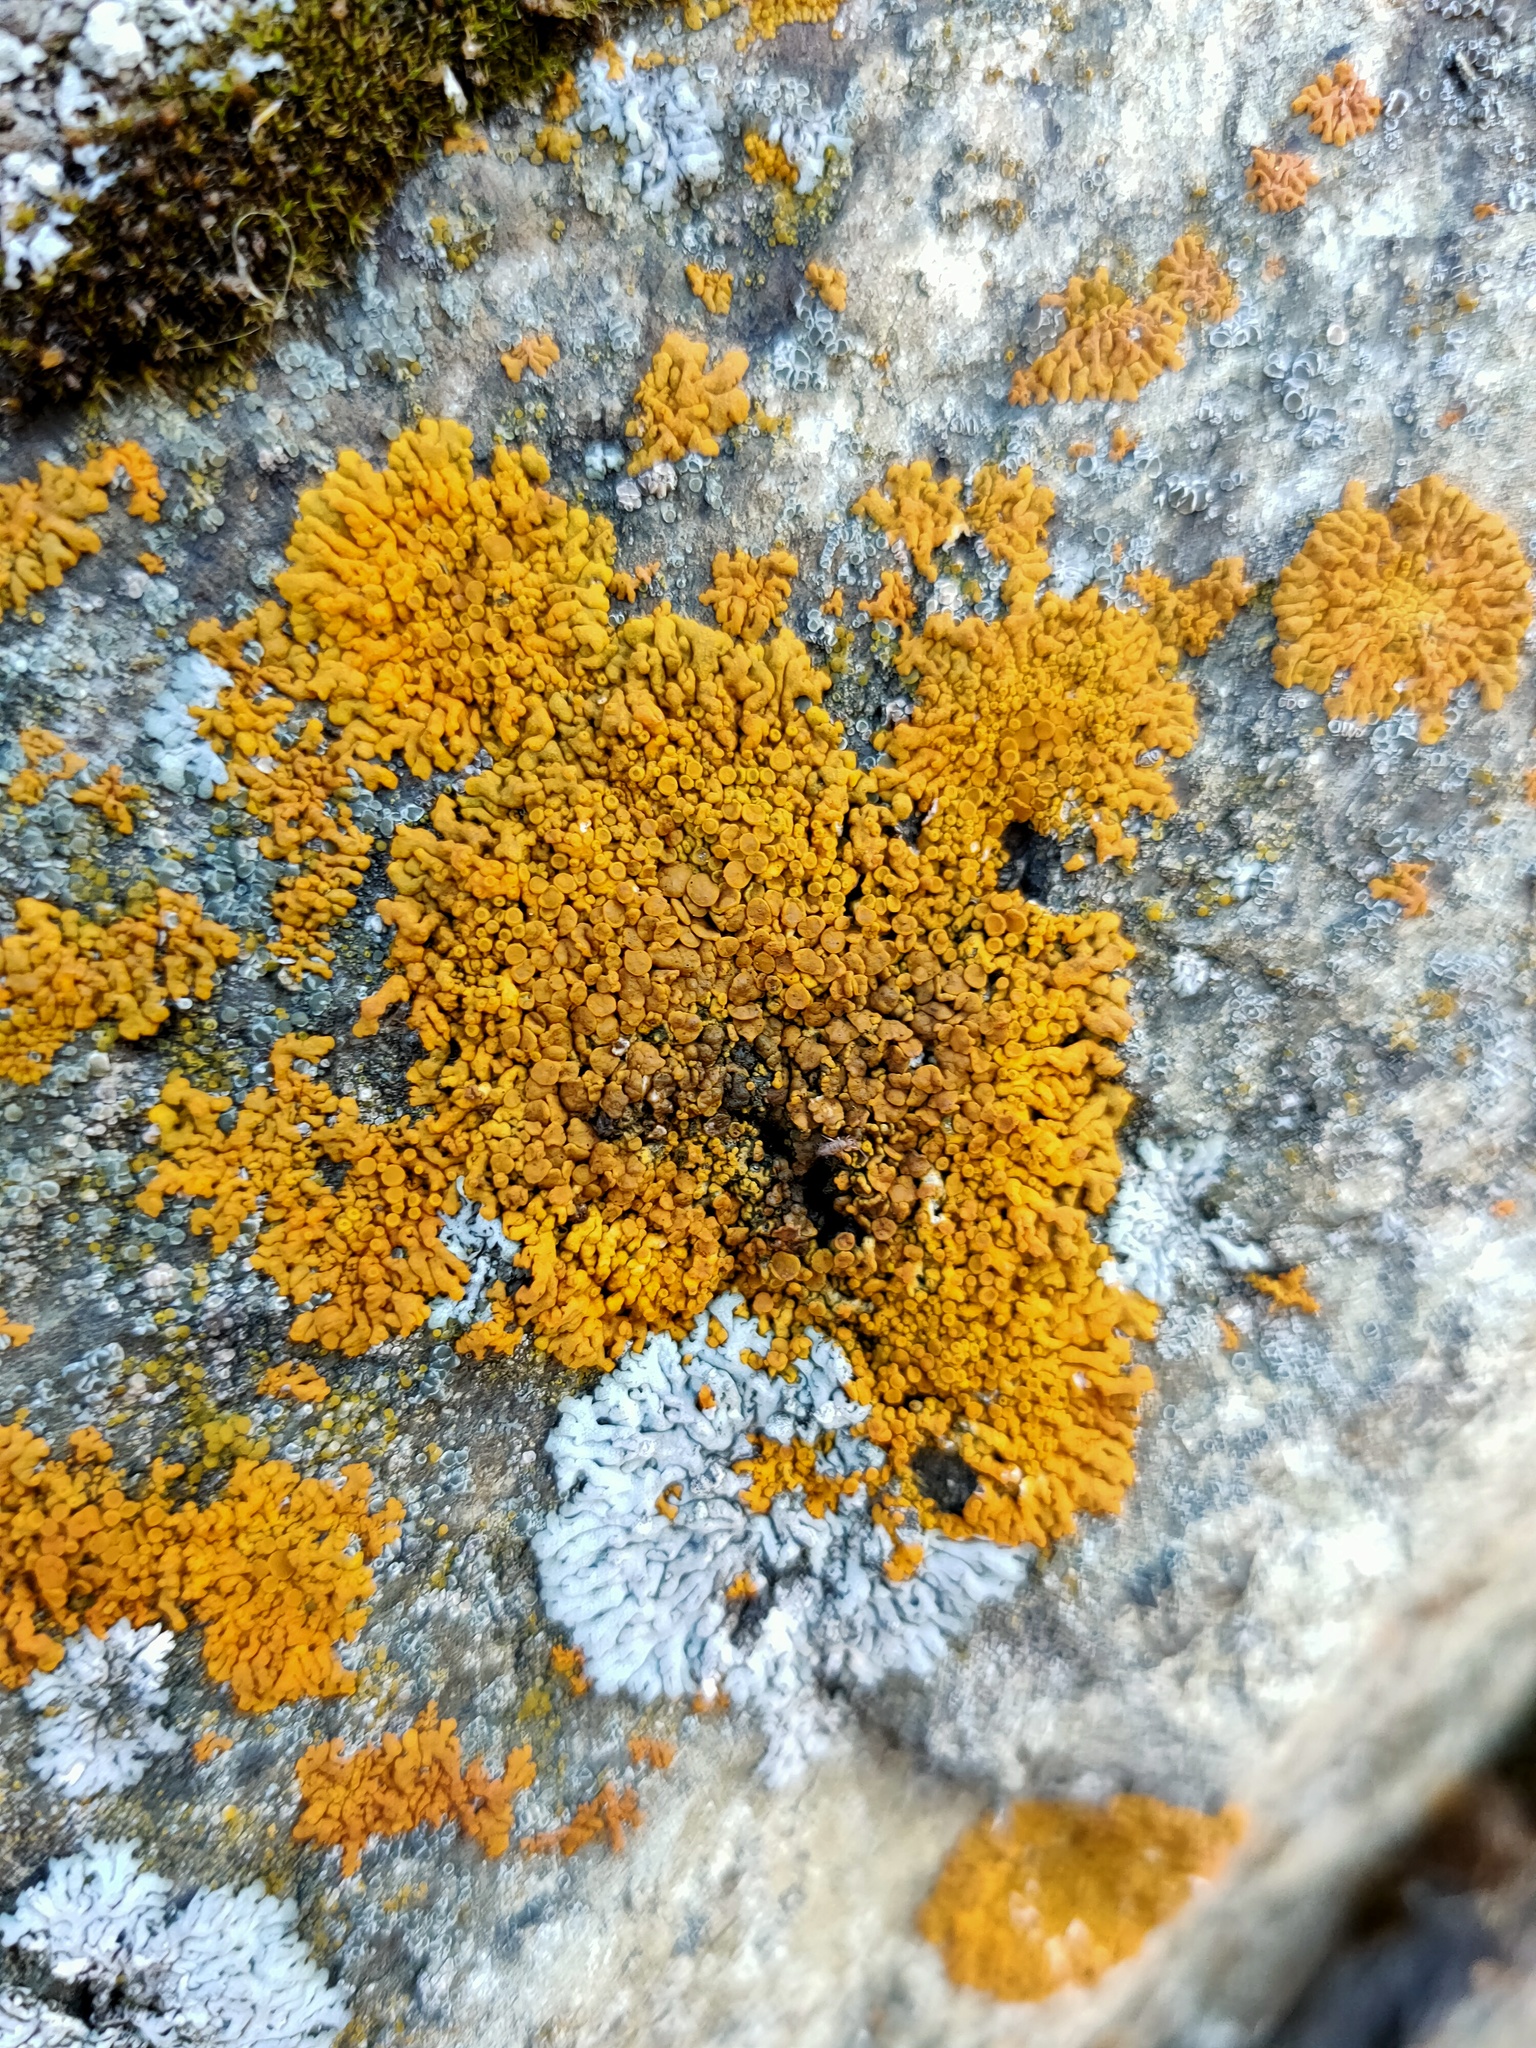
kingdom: Fungi
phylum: Ascomycota
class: Lecanoromycetes
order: Teloschistales
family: Teloschistaceae
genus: Xanthoria
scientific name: Xanthoria parietina
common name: Common orange lichen
